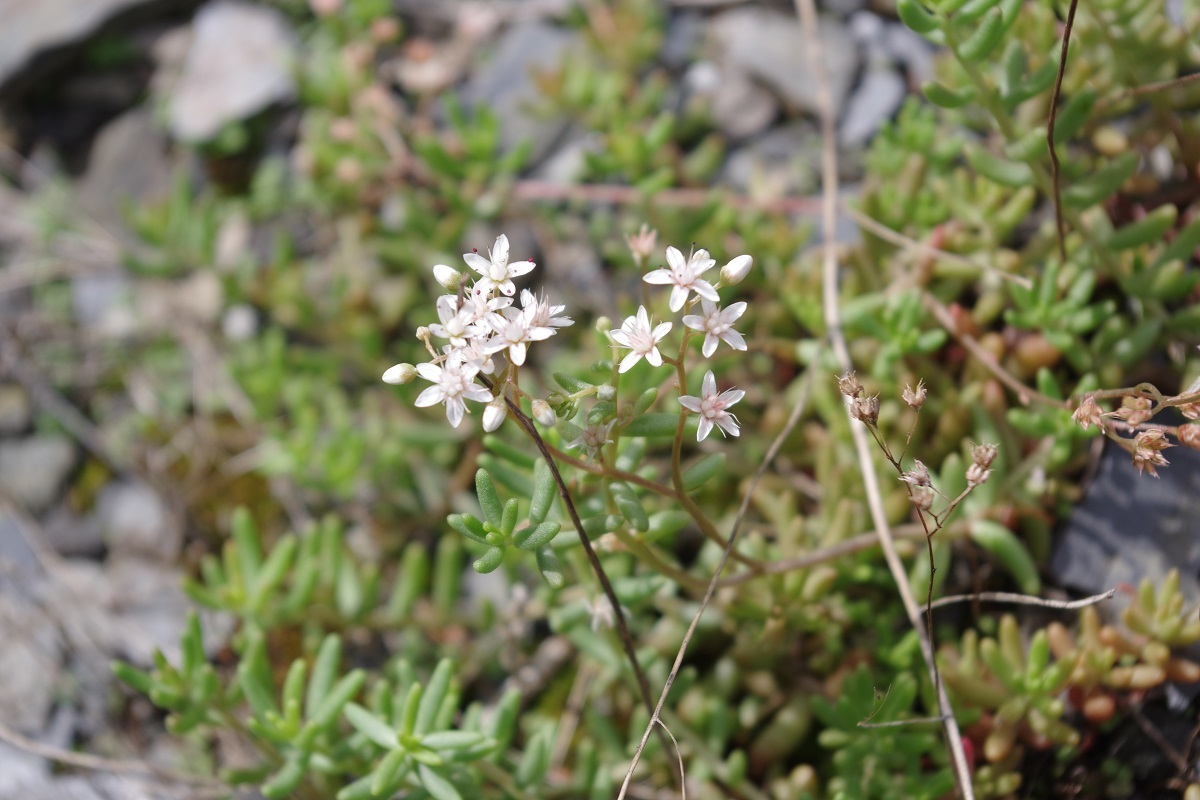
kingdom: Plantae
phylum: Tracheophyta
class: Magnoliopsida
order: Saxifragales
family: Crassulaceae
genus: Sedum
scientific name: Sedum album
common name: White stonecrop
